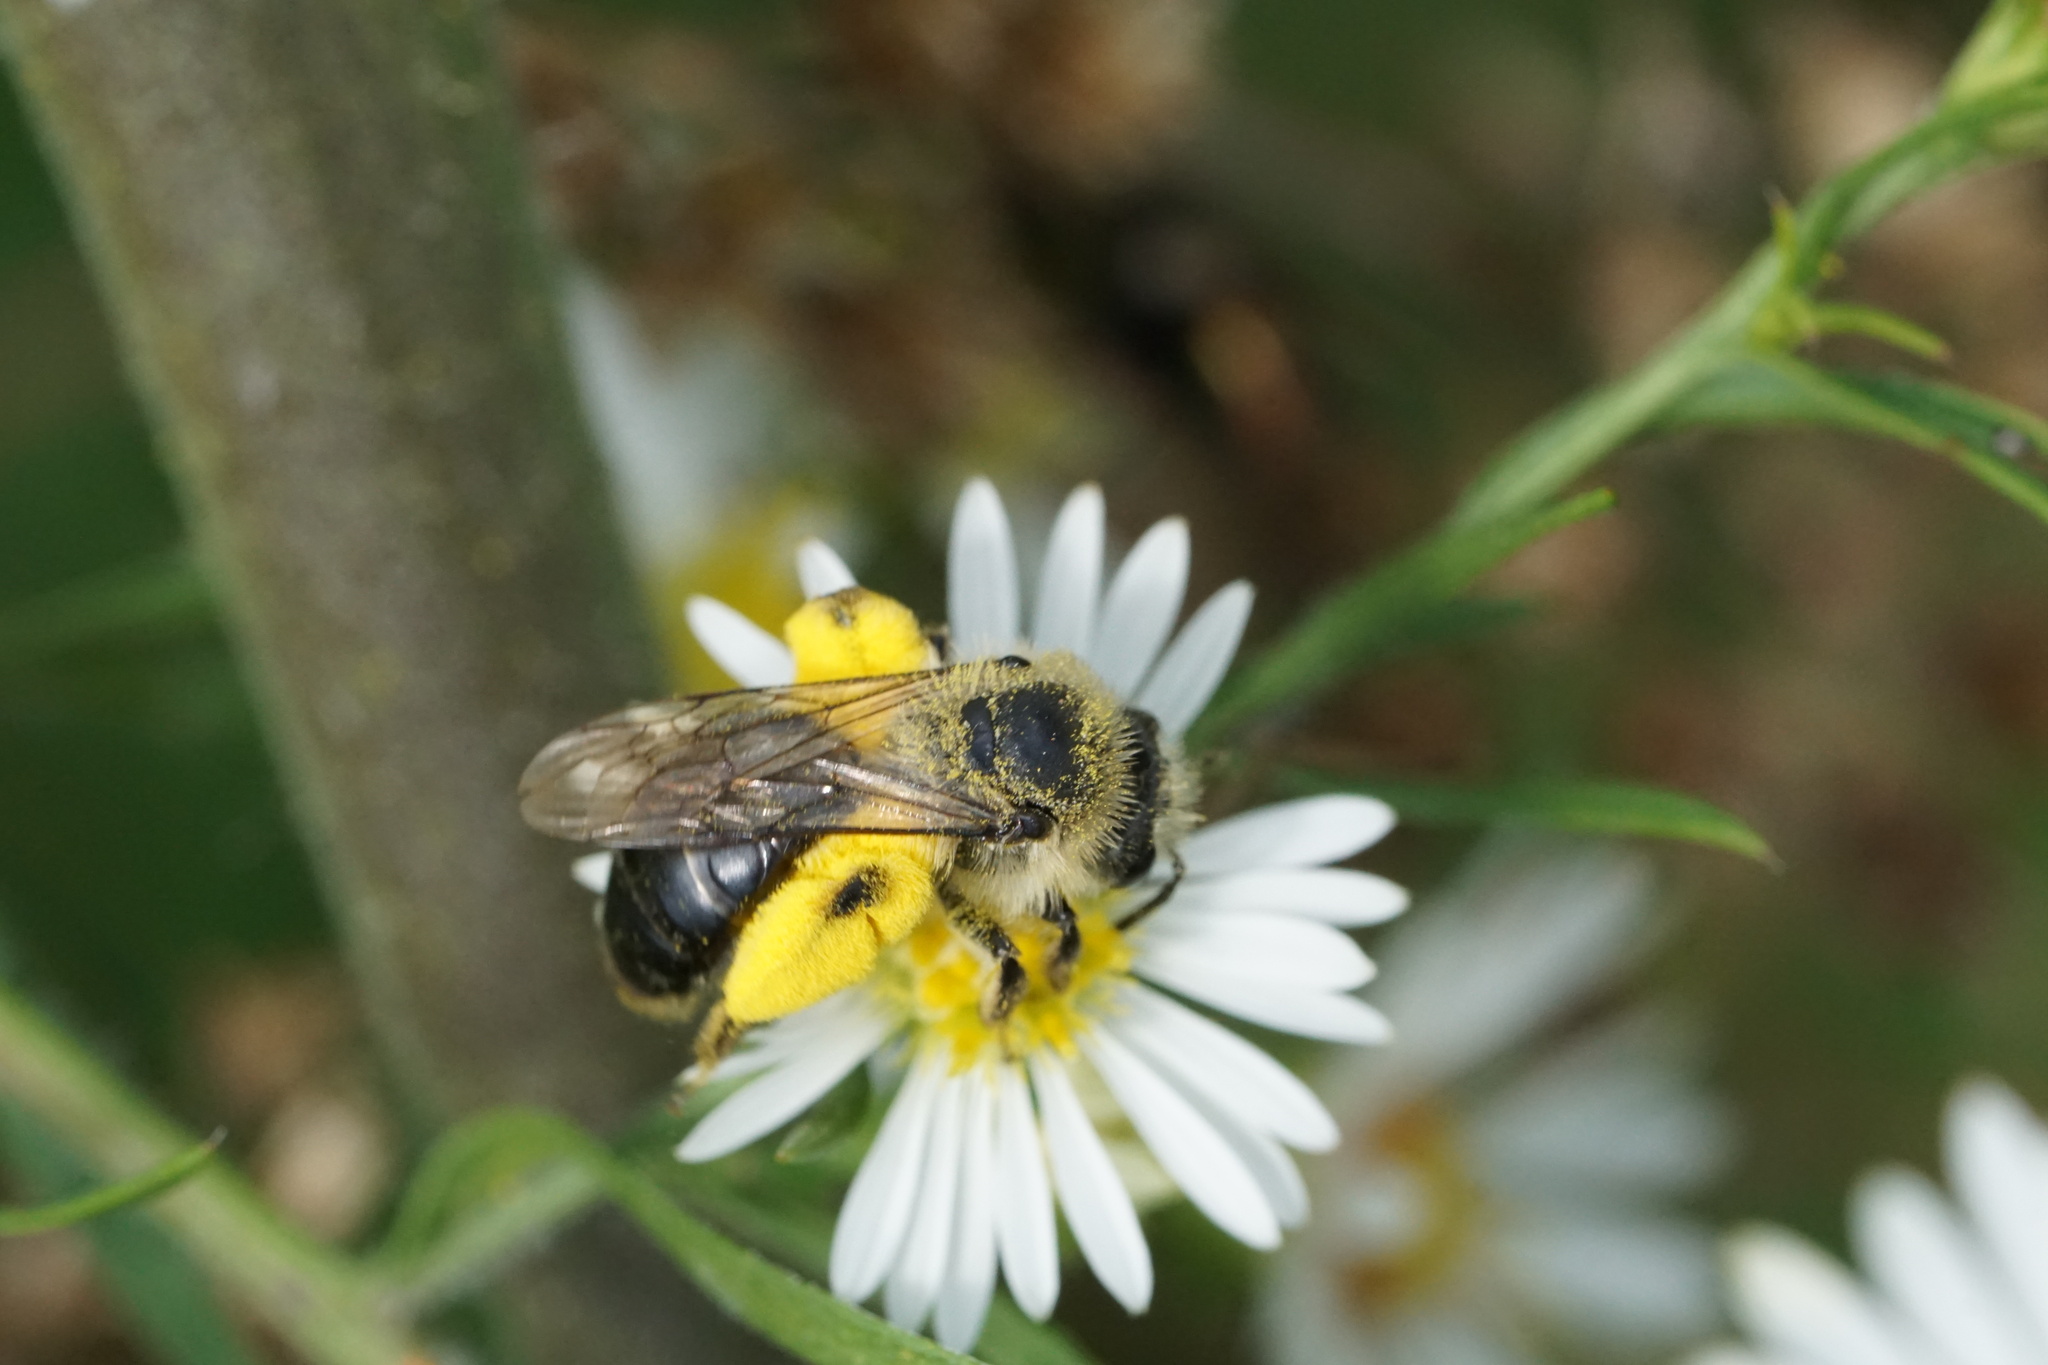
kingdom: Animalia
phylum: Arthropoda
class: Insecta
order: Hymenoptera
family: Andrenidae
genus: Andrena
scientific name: Andrena asteris
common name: Aster mining bee
